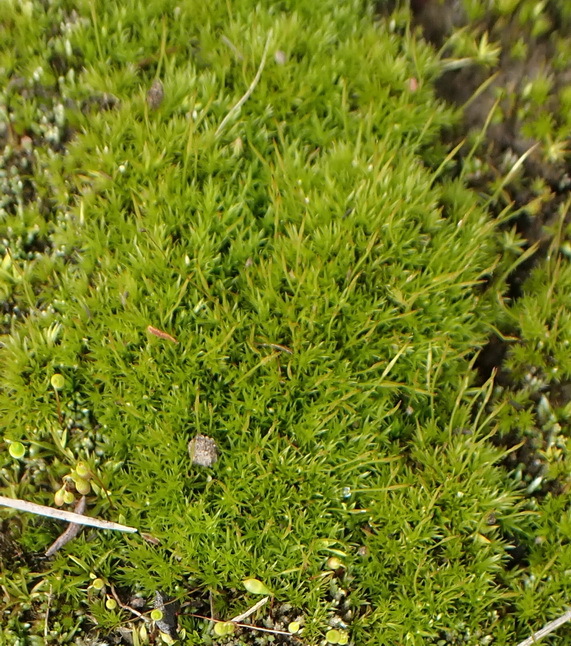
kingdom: Plantae
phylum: Bryophyta
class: Bryopsida
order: Dicranales
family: Ditrichaceae
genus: Ceratodon
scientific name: Ceratodon purpureus
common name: Redshank
